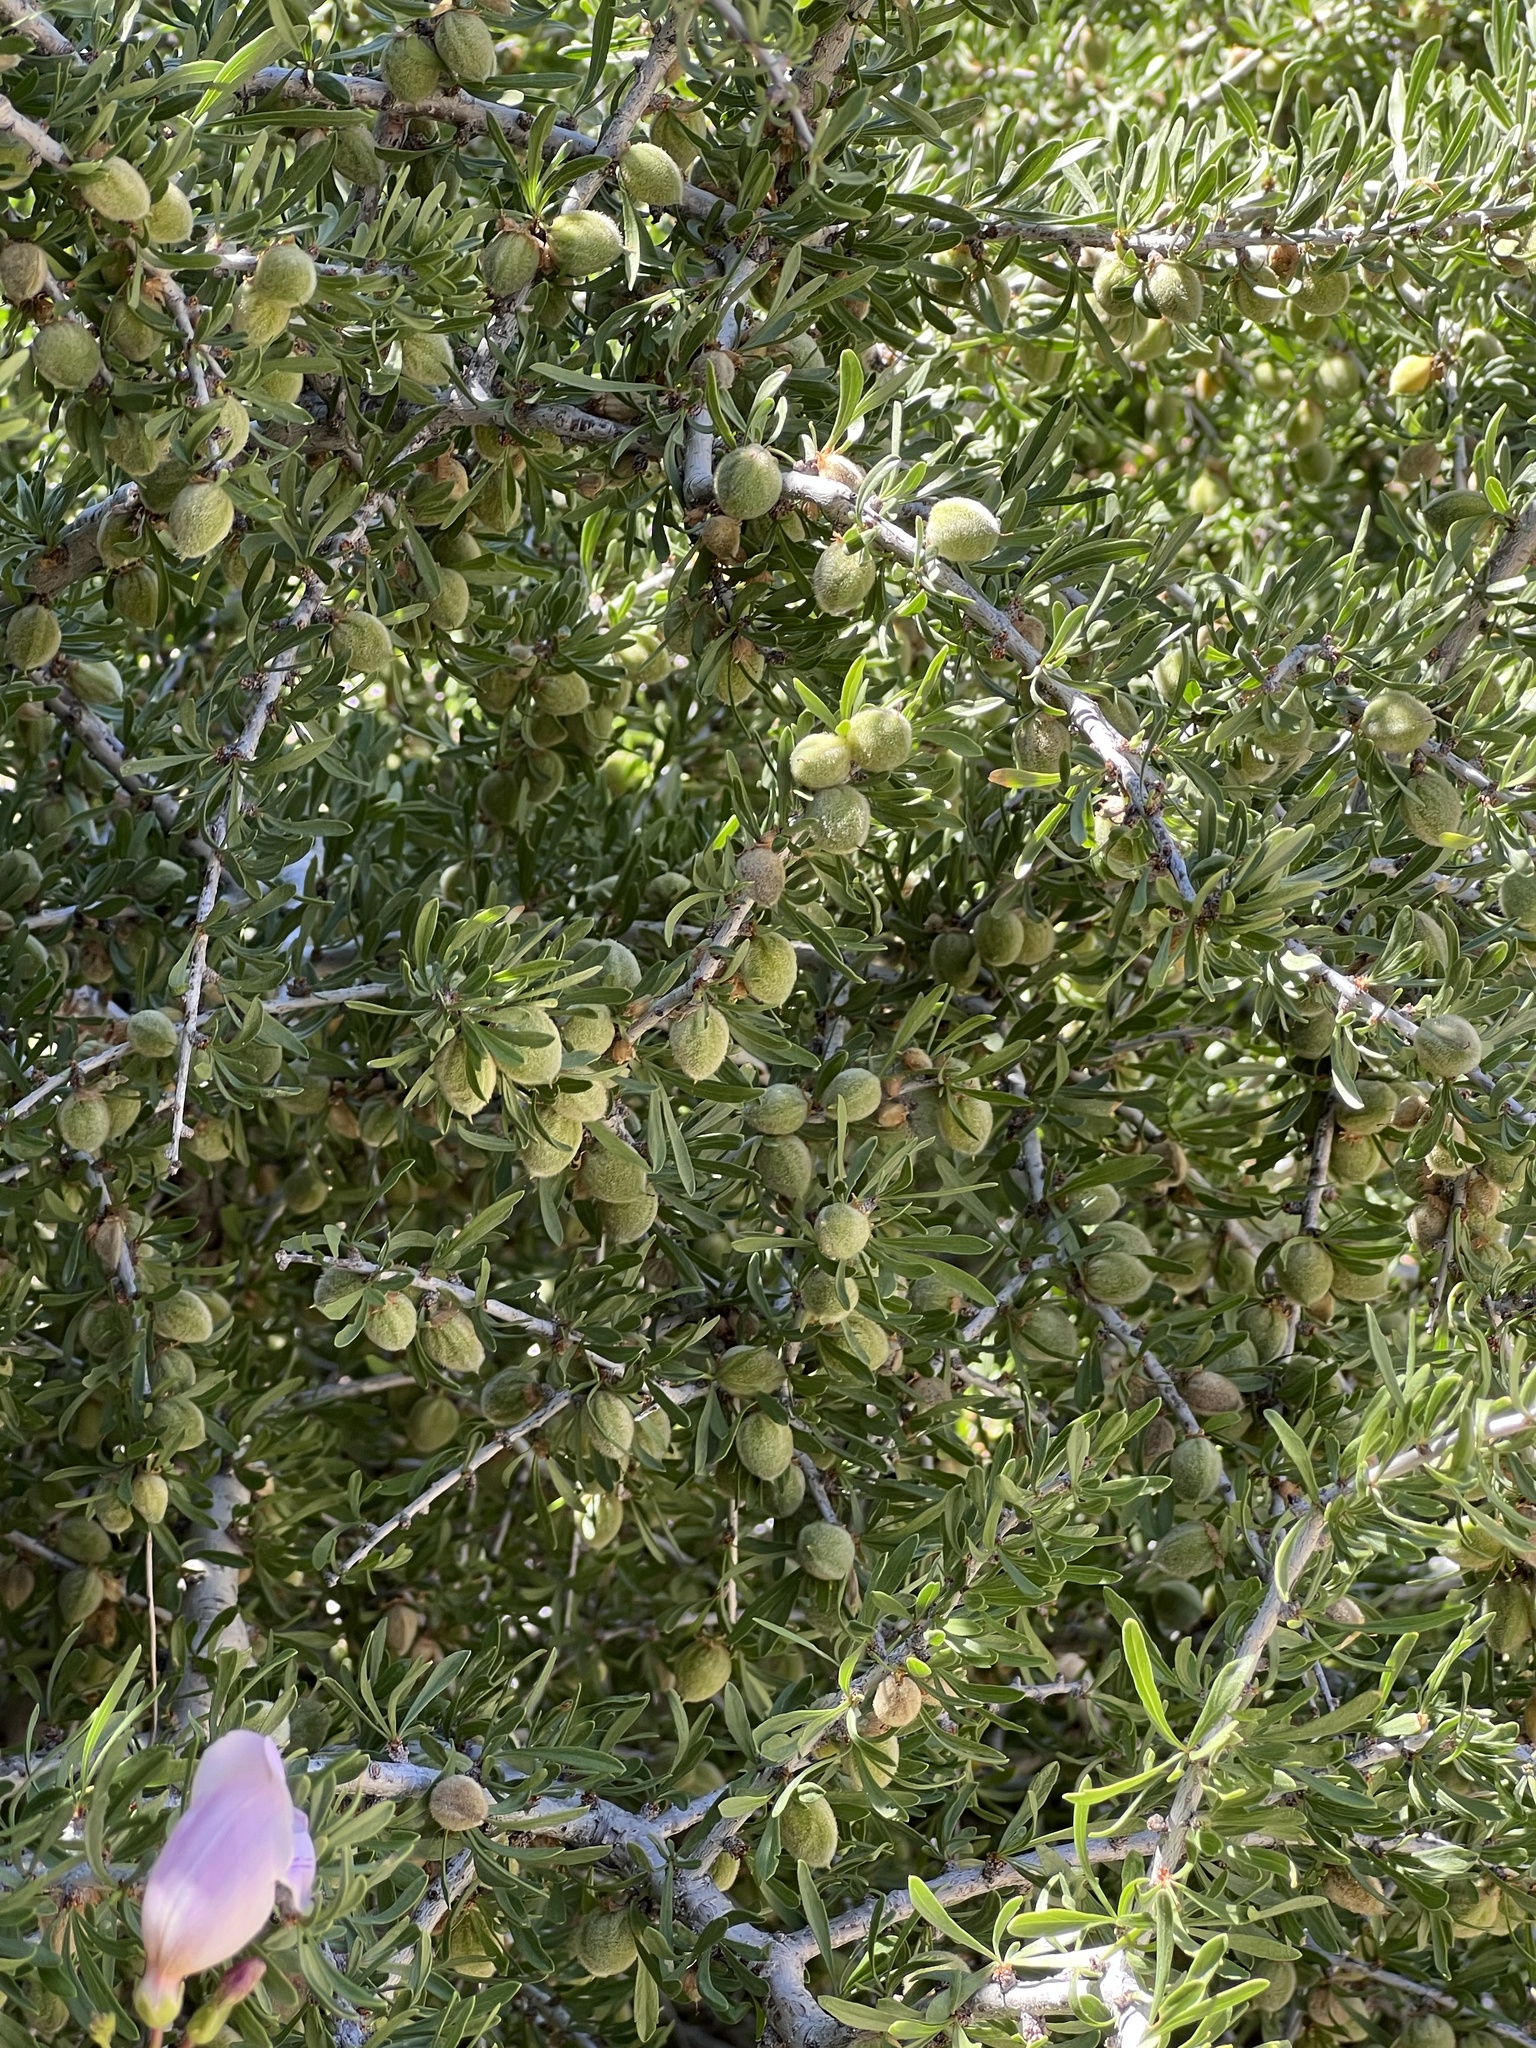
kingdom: Plantae
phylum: Tracheophyta
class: Magnoliopsida
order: Rosales
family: Rosaceae
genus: Prunus
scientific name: Prunus fasciculata
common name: Desert almond
